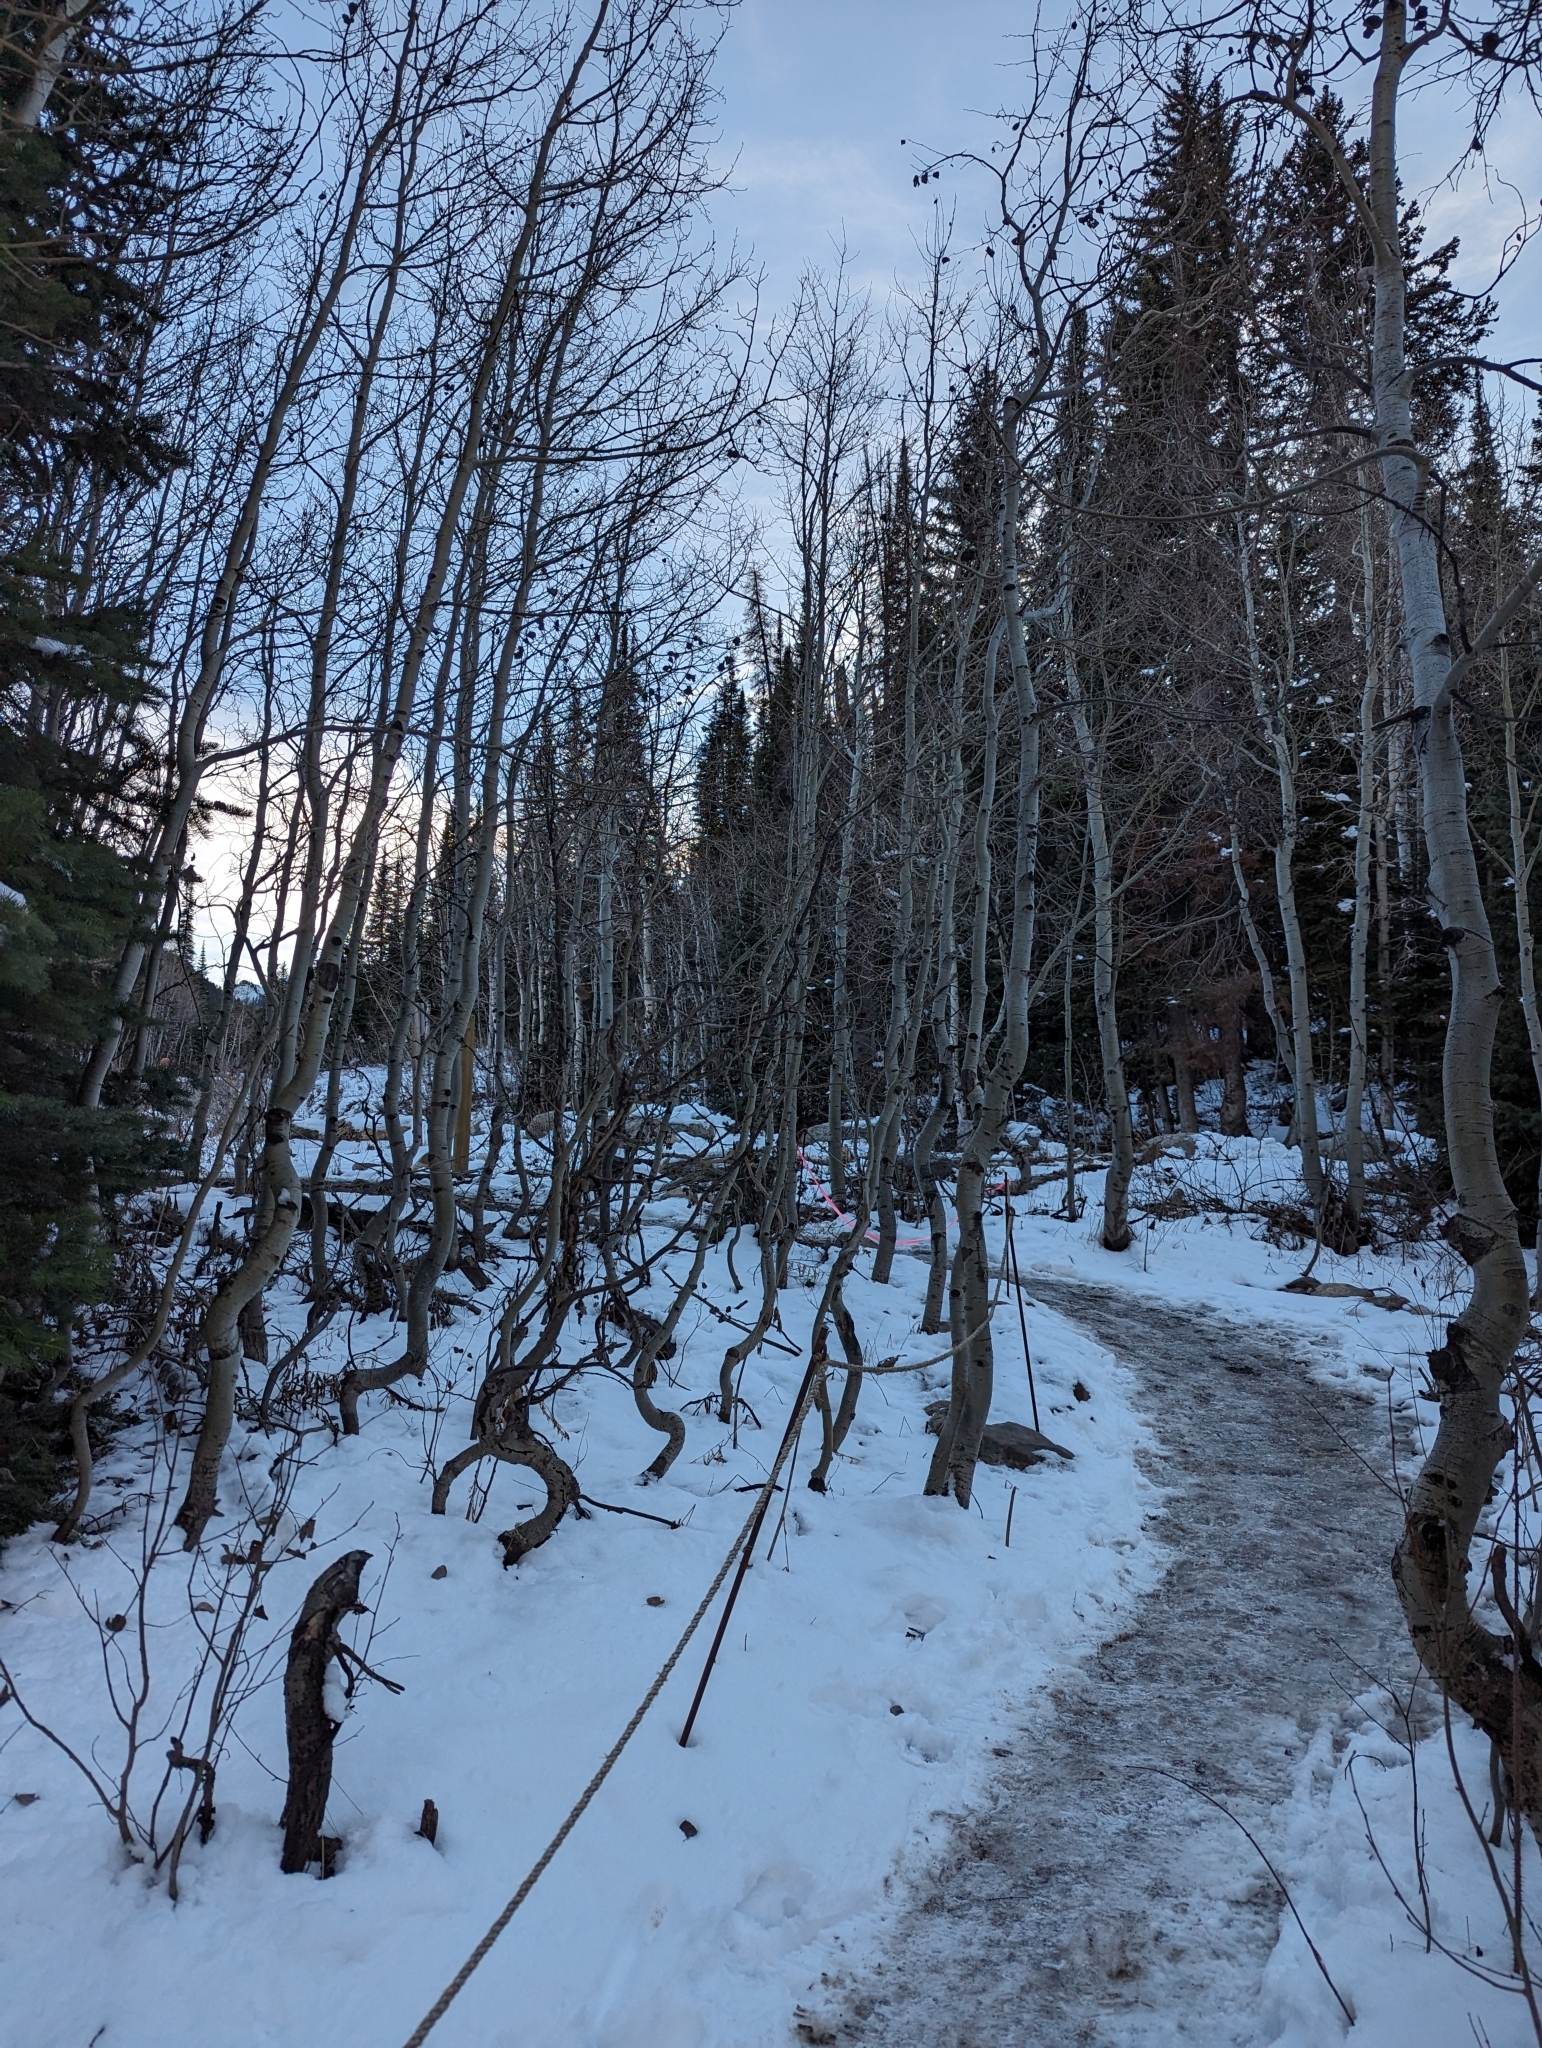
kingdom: Plantae
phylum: Tracheophyta
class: Magnoliopsida
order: Malpighiales
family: Salicaceae
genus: Populus
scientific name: Populus tremuloides
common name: Quaking aspen
